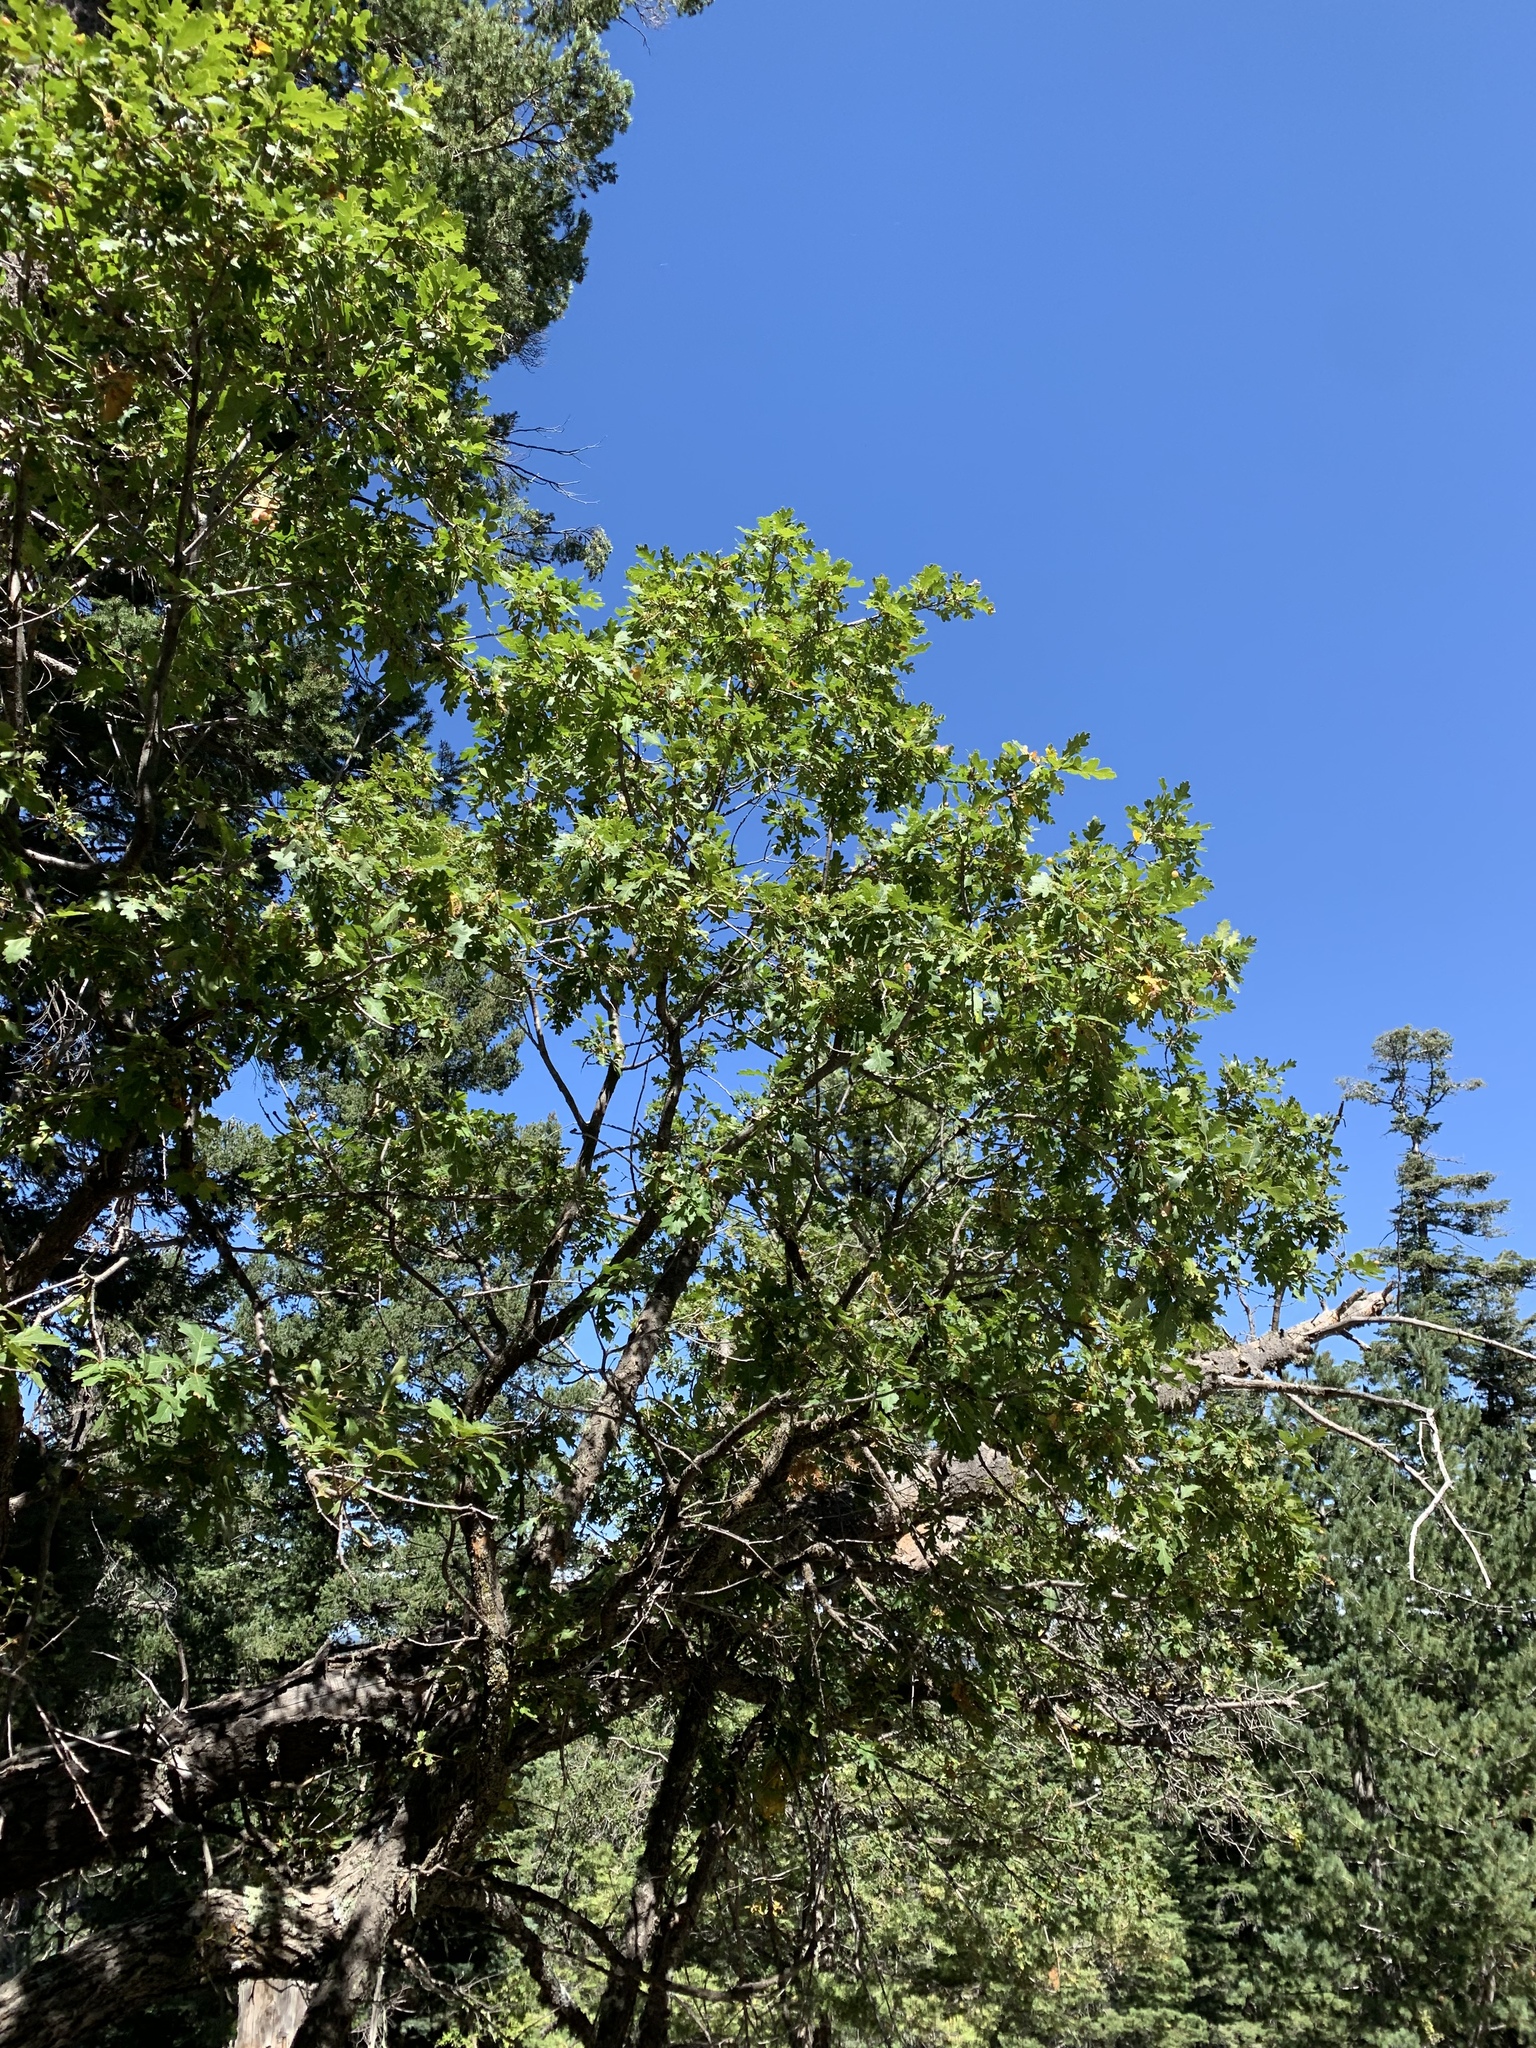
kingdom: Plantae
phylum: Tracheophyta
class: Magnoliopsida
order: Fagales
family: Fagaceae
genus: Quercus
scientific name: Quercus gambelii
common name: Gambel oak
